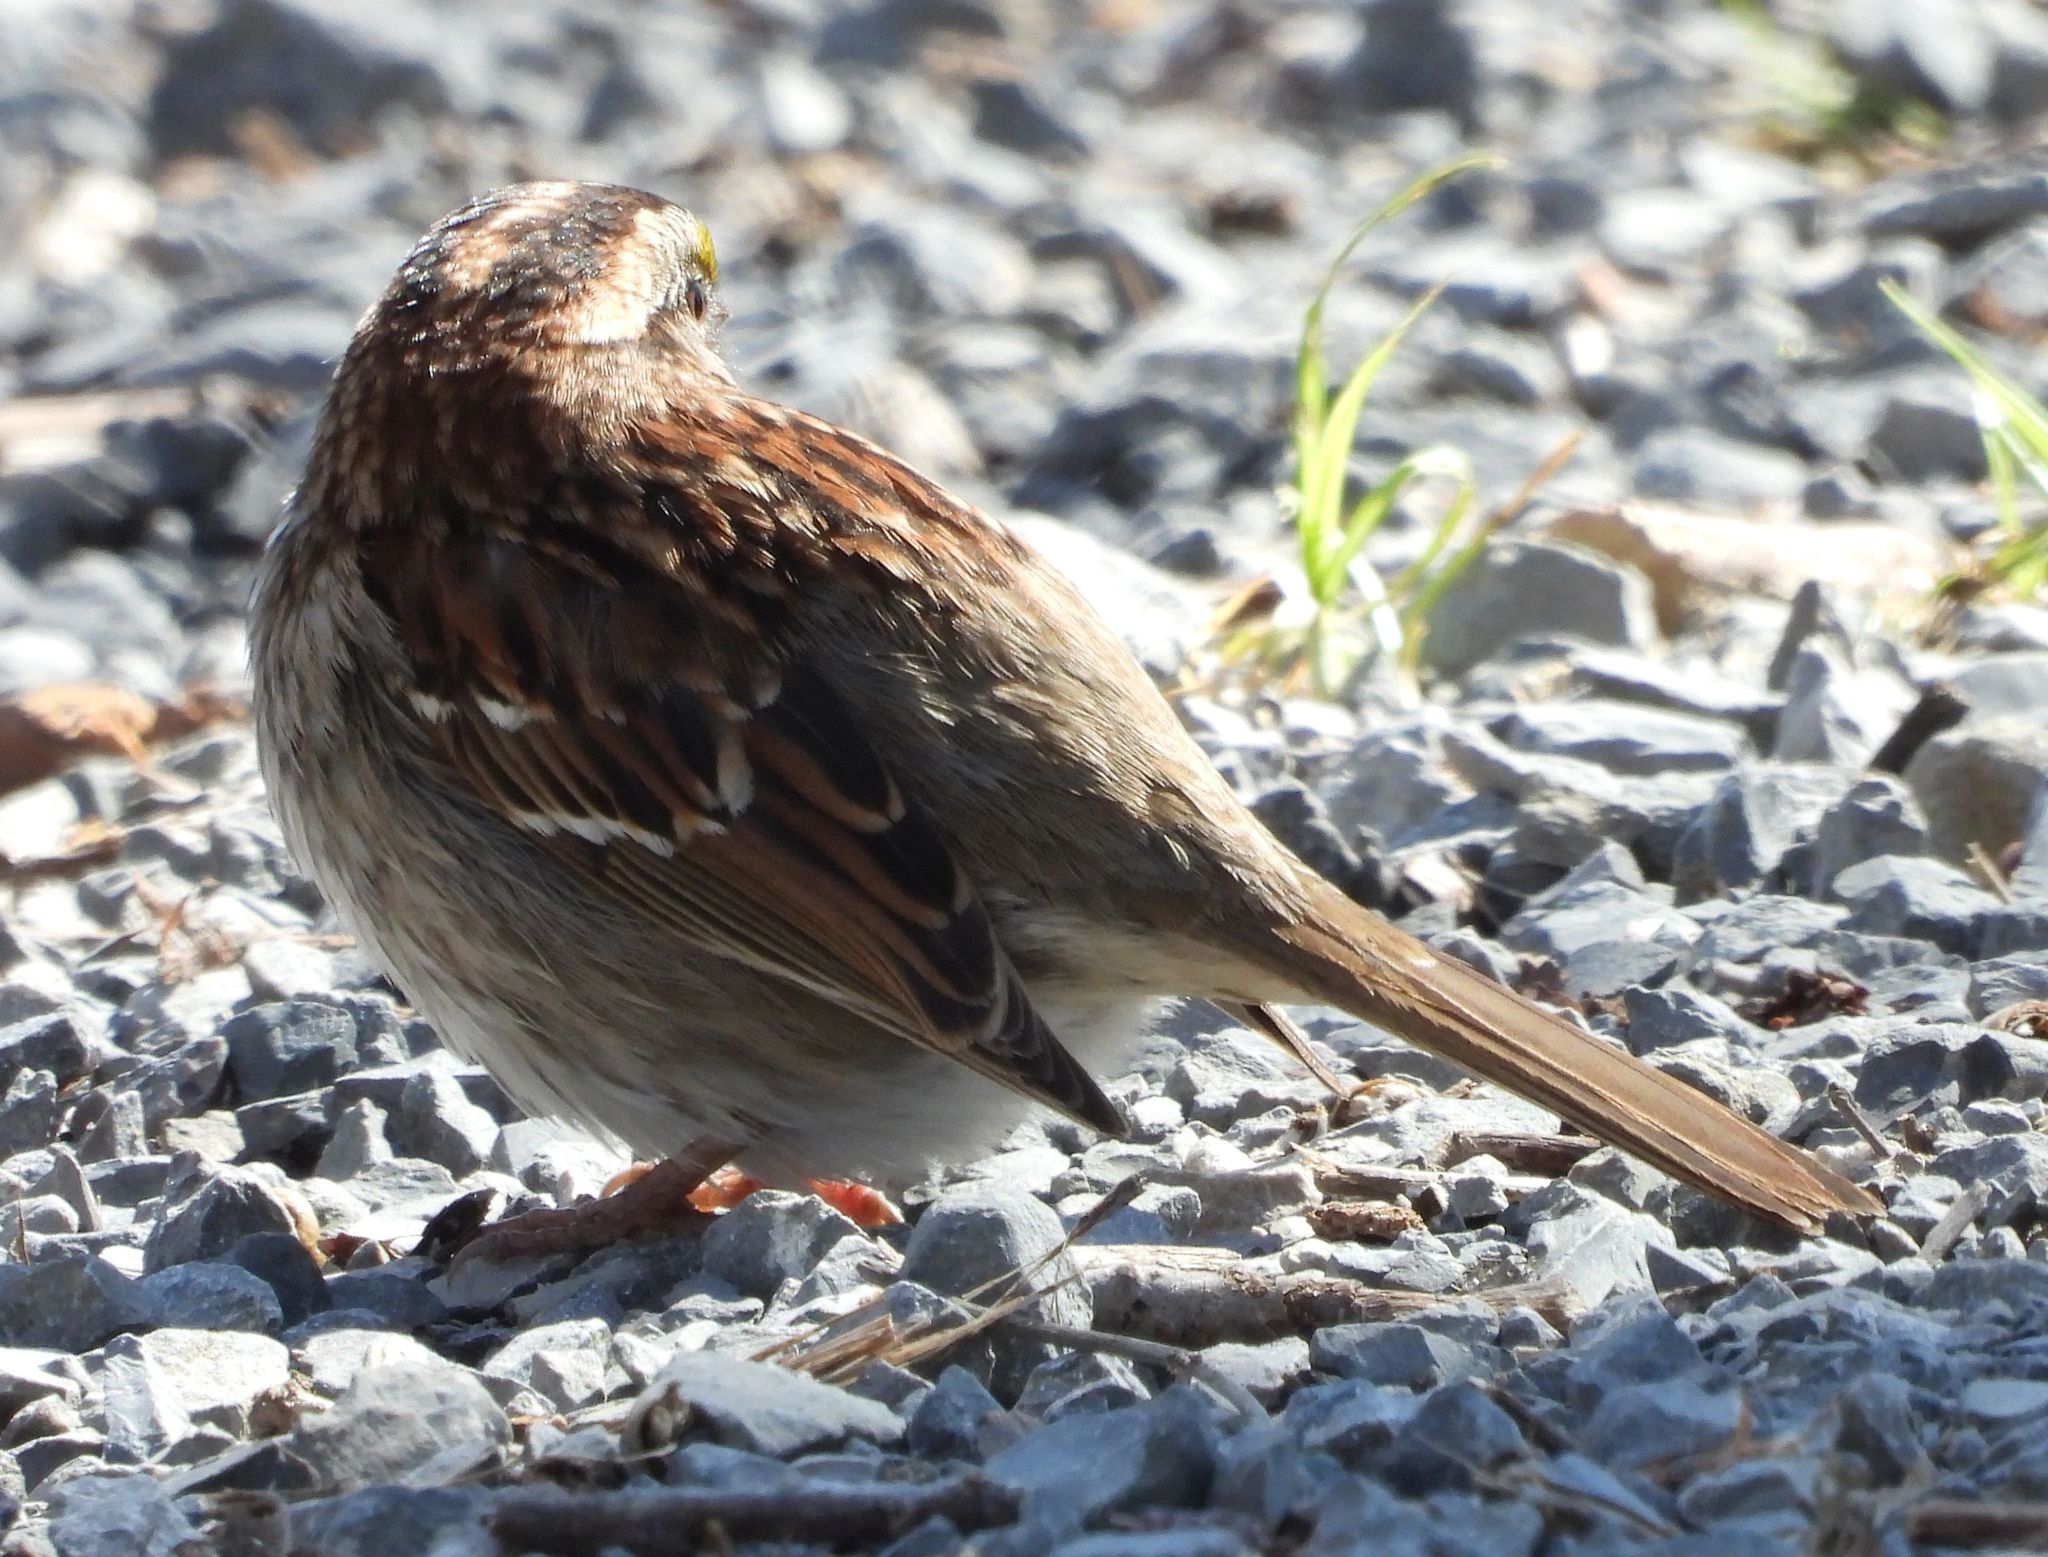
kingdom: Animalia
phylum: Chordata
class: Aves
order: Passeriformes
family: Passerellidae
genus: Zonotrichia
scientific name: Zonotrichia albicollis
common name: White-throated sparrow
